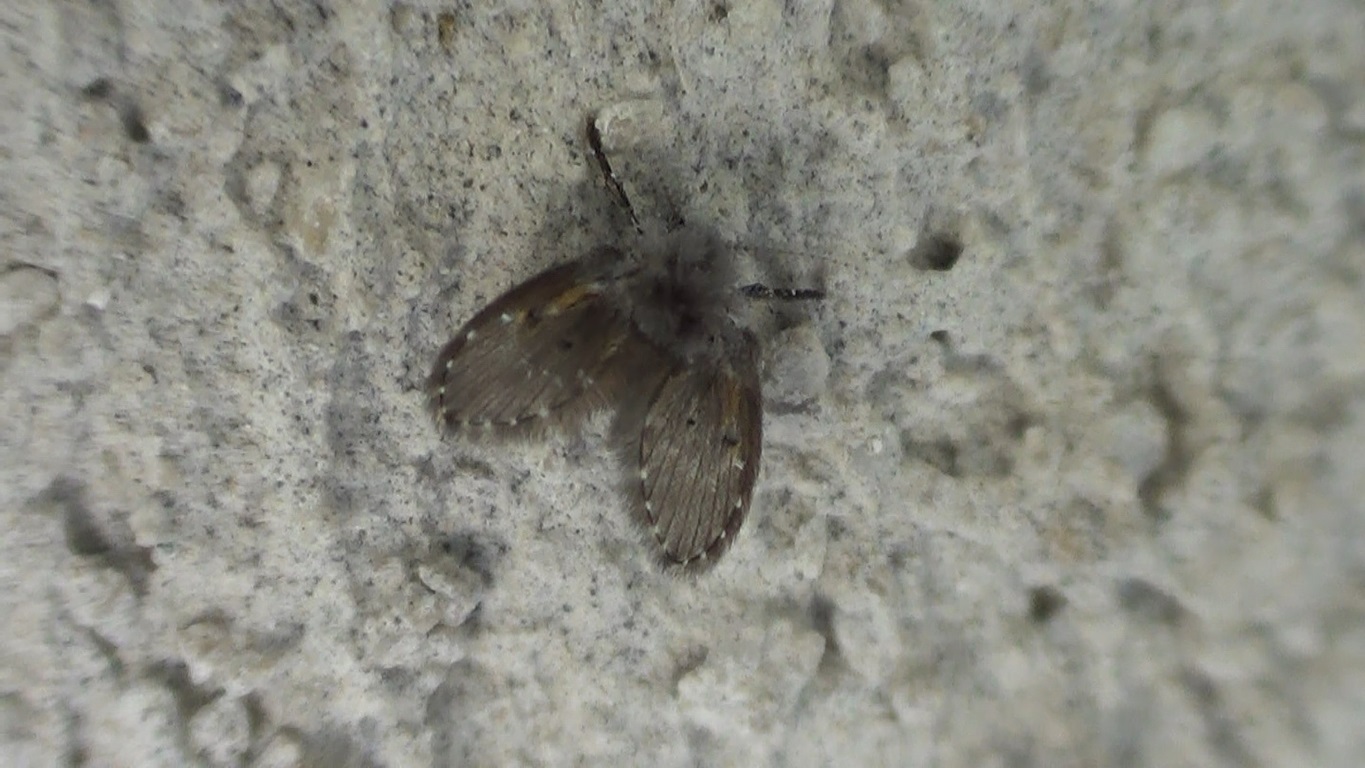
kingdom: Animalia
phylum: Arthropoda
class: Insecta
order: Diptera
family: Psychodidae
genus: Clogmia
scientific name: Clogmia albipunctatus
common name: White-spotted moth fly
